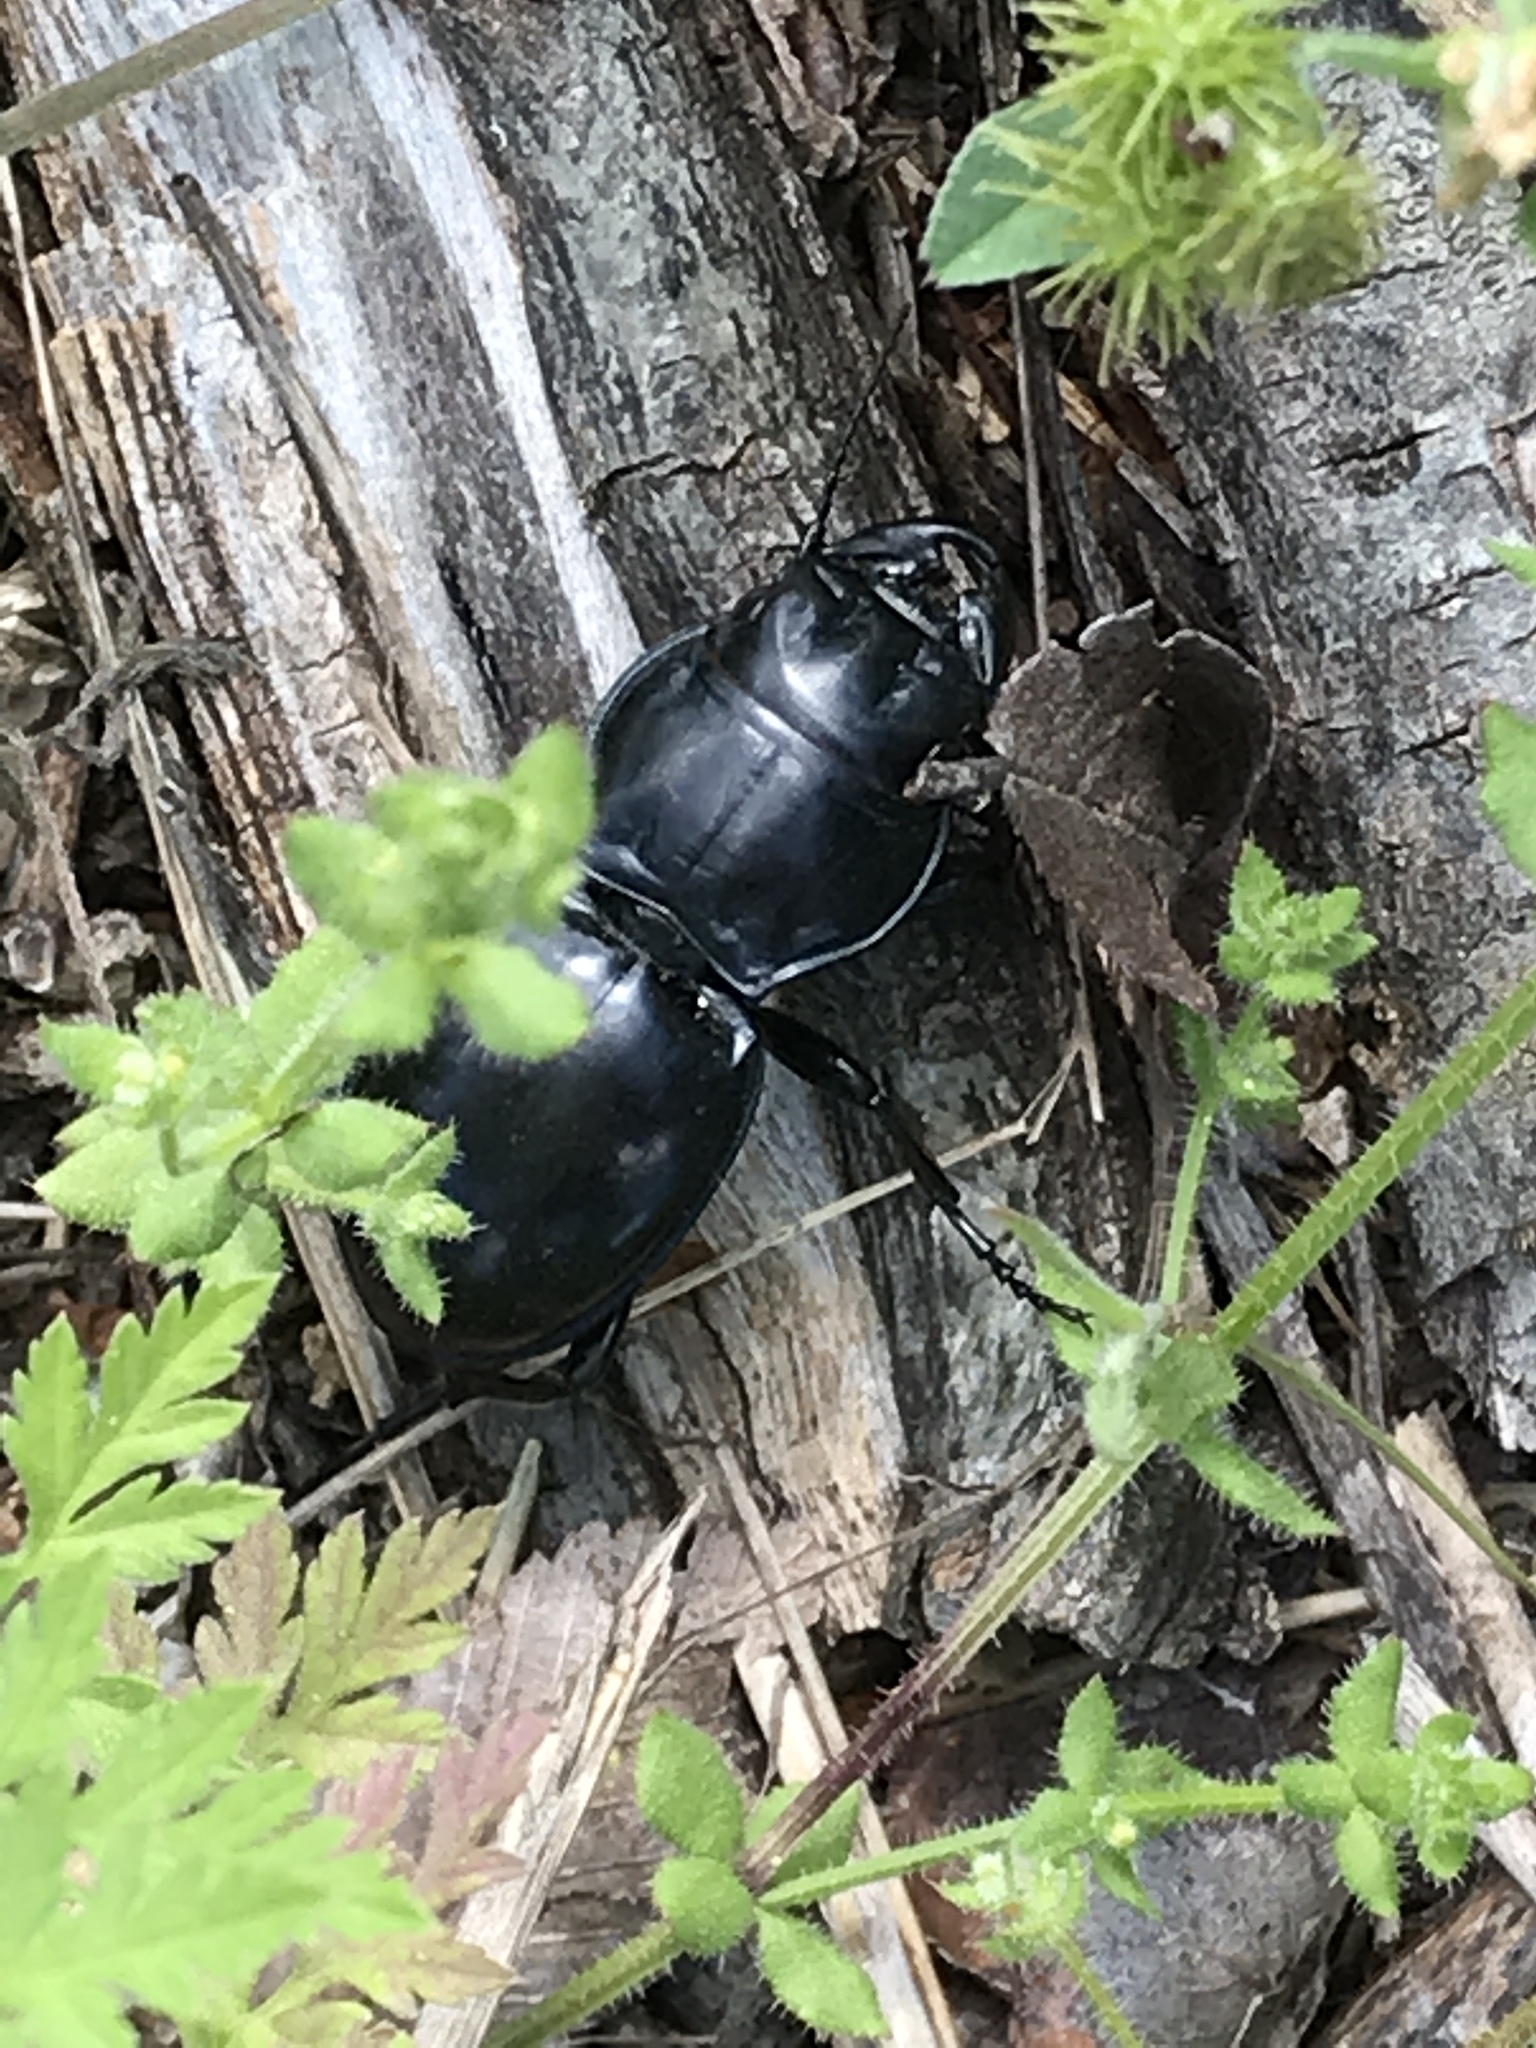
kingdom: Animalia
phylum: Arthropoda
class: Insecta
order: Coleoptera
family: Carabidae
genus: Pasimachus
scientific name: Pasimachus californicus
